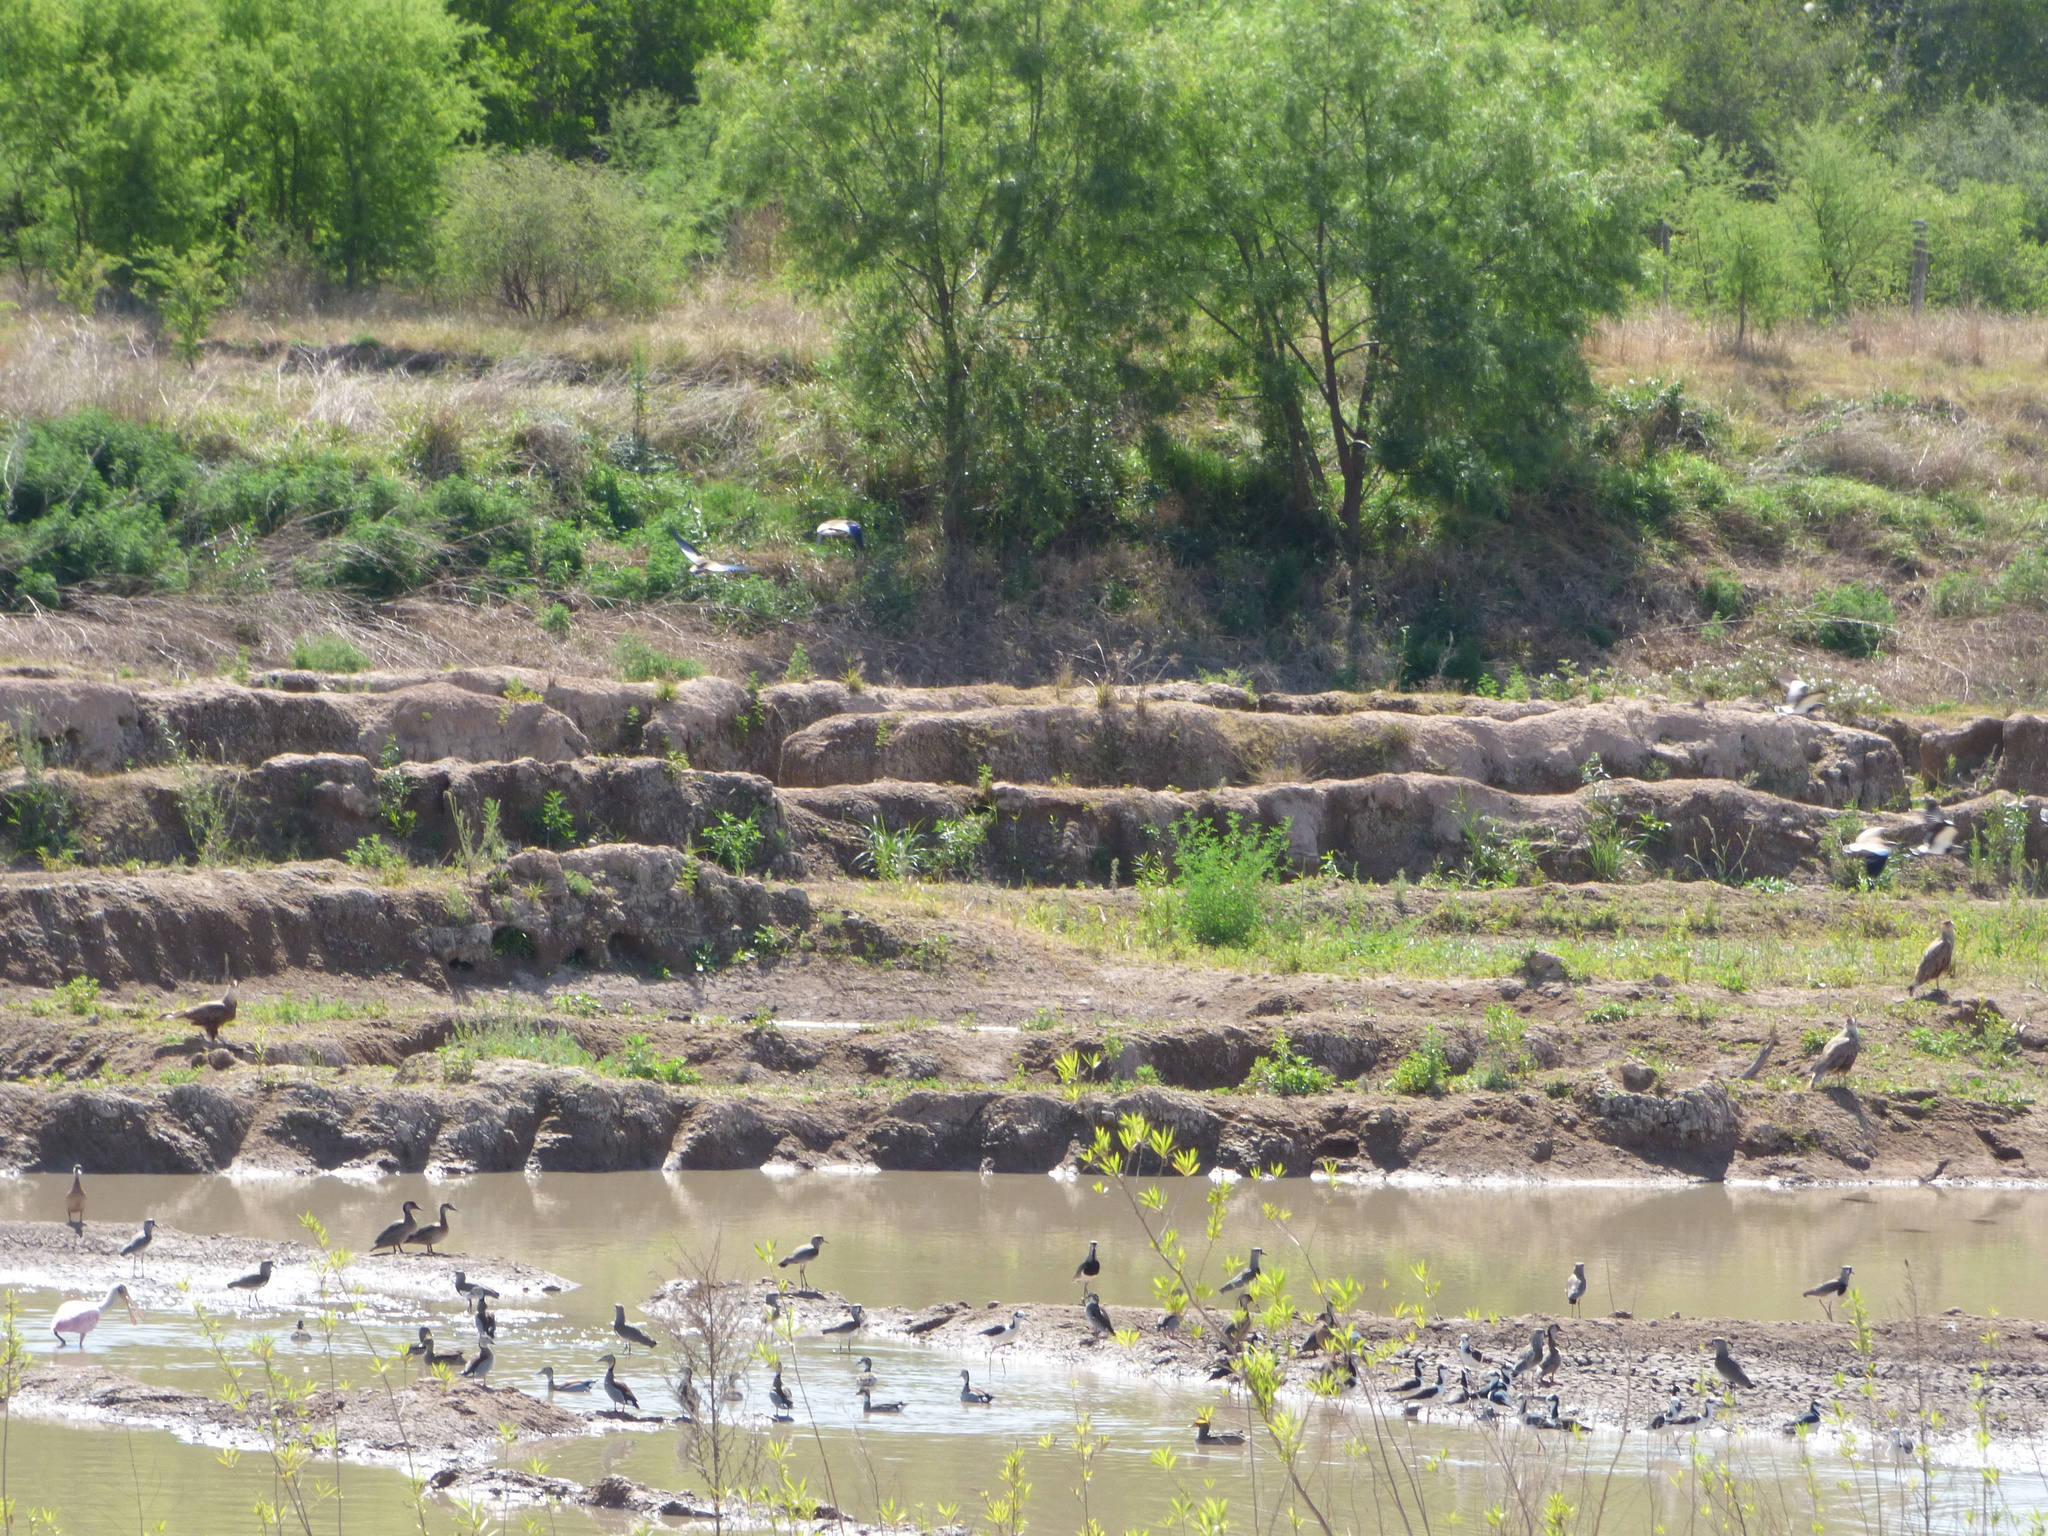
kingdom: Animalia
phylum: Chordata
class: Aves
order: Charadriiformes
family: Recurvirostridae
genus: Himantopus
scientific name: Himantopus mexicanus
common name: Black-necked stilt
